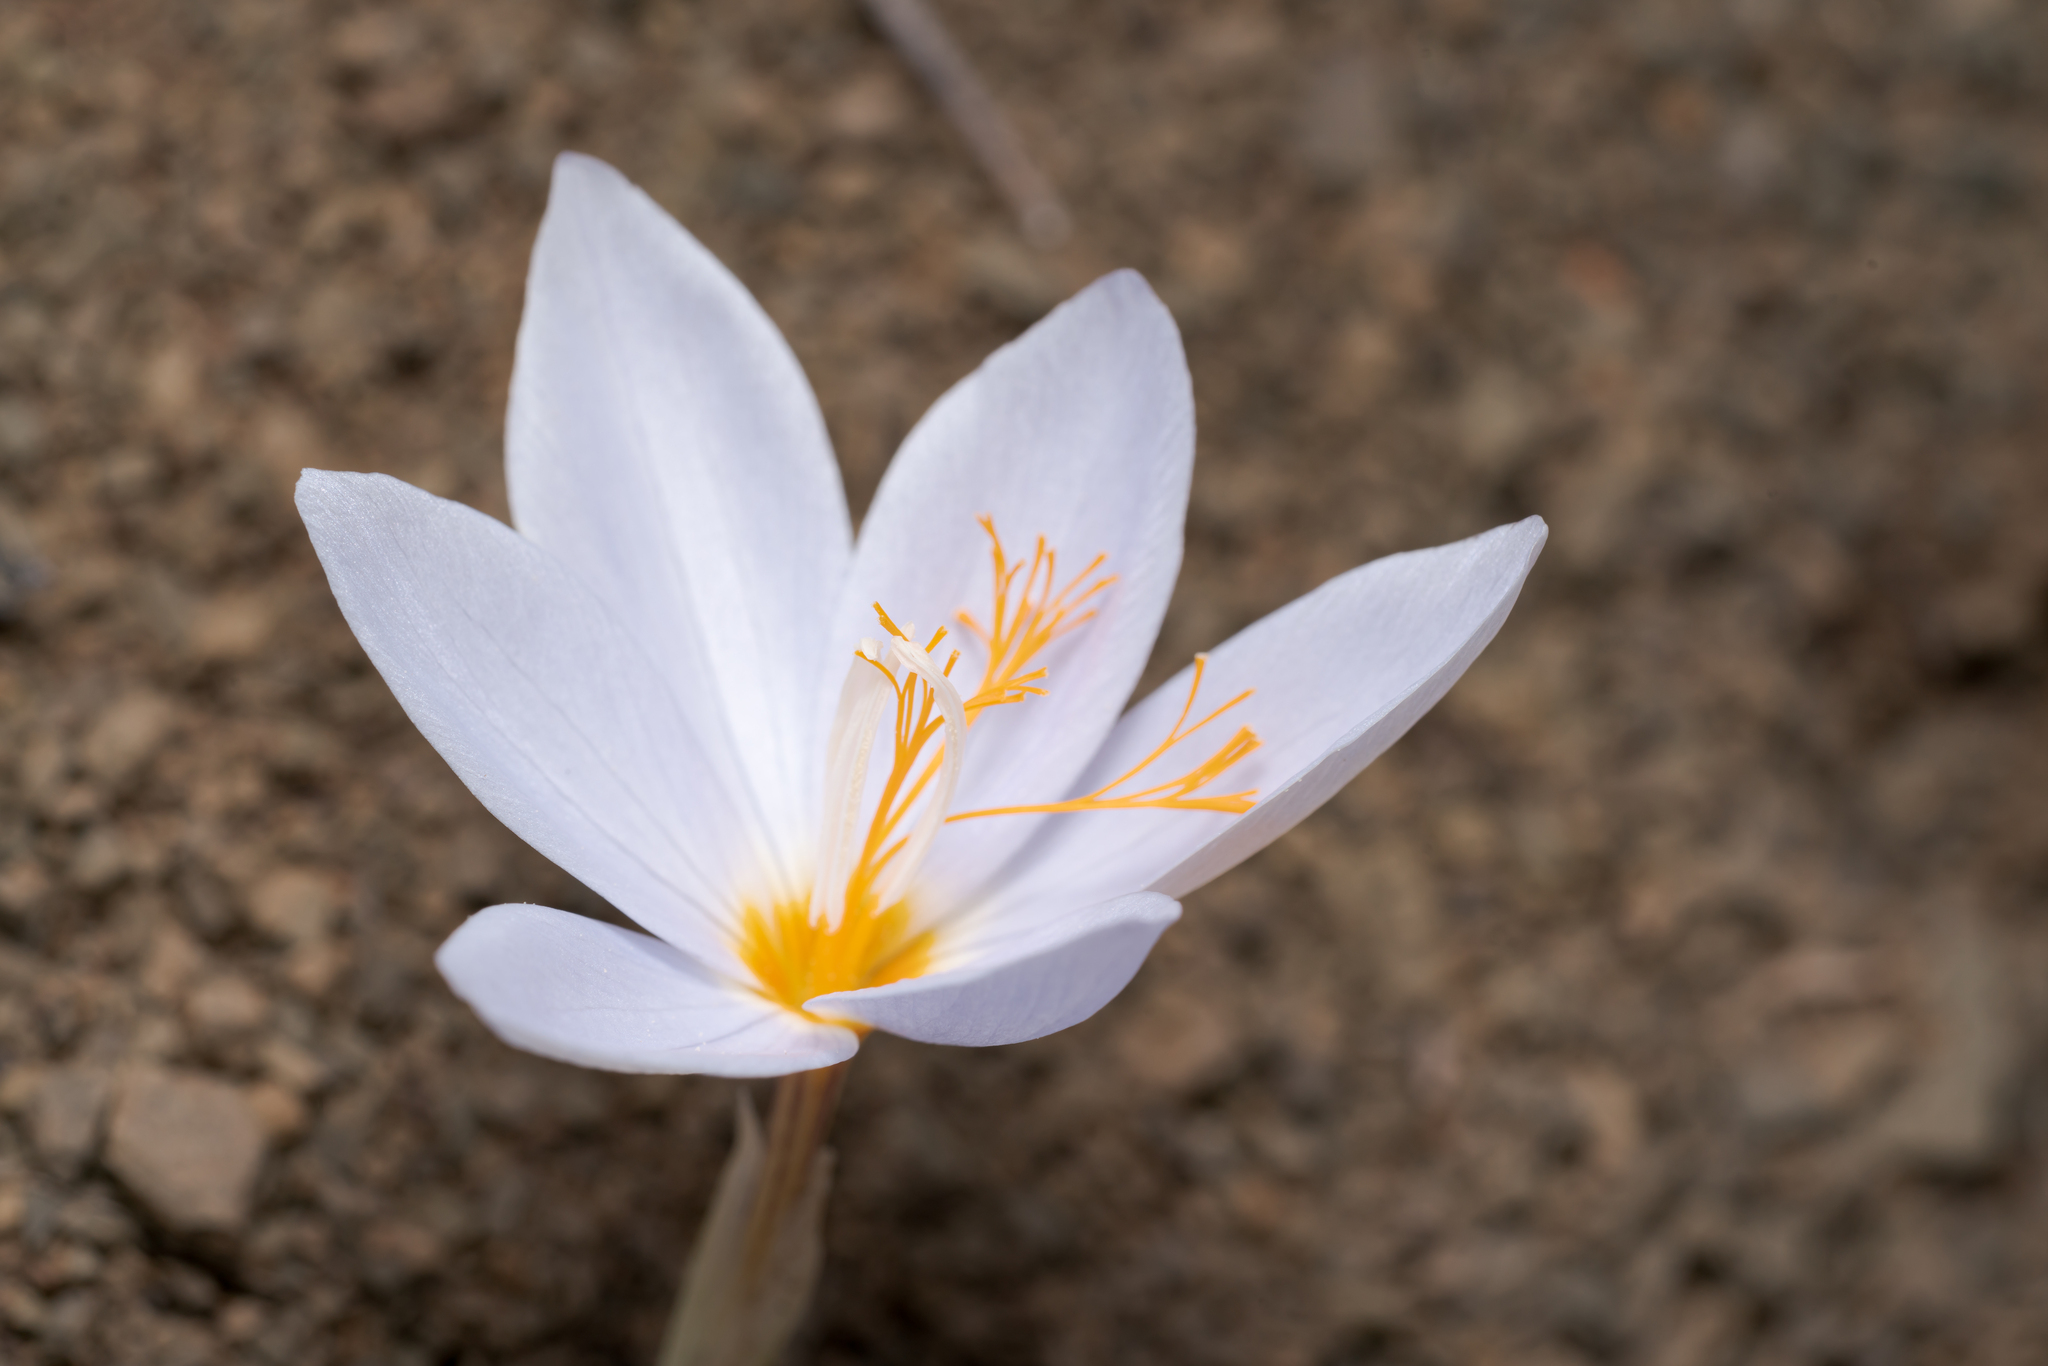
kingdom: Plantae
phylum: Tracheophyta
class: Liliopsida
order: Asparagales
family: Iridaceae
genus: Crocus
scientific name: Crocus tournefortii
